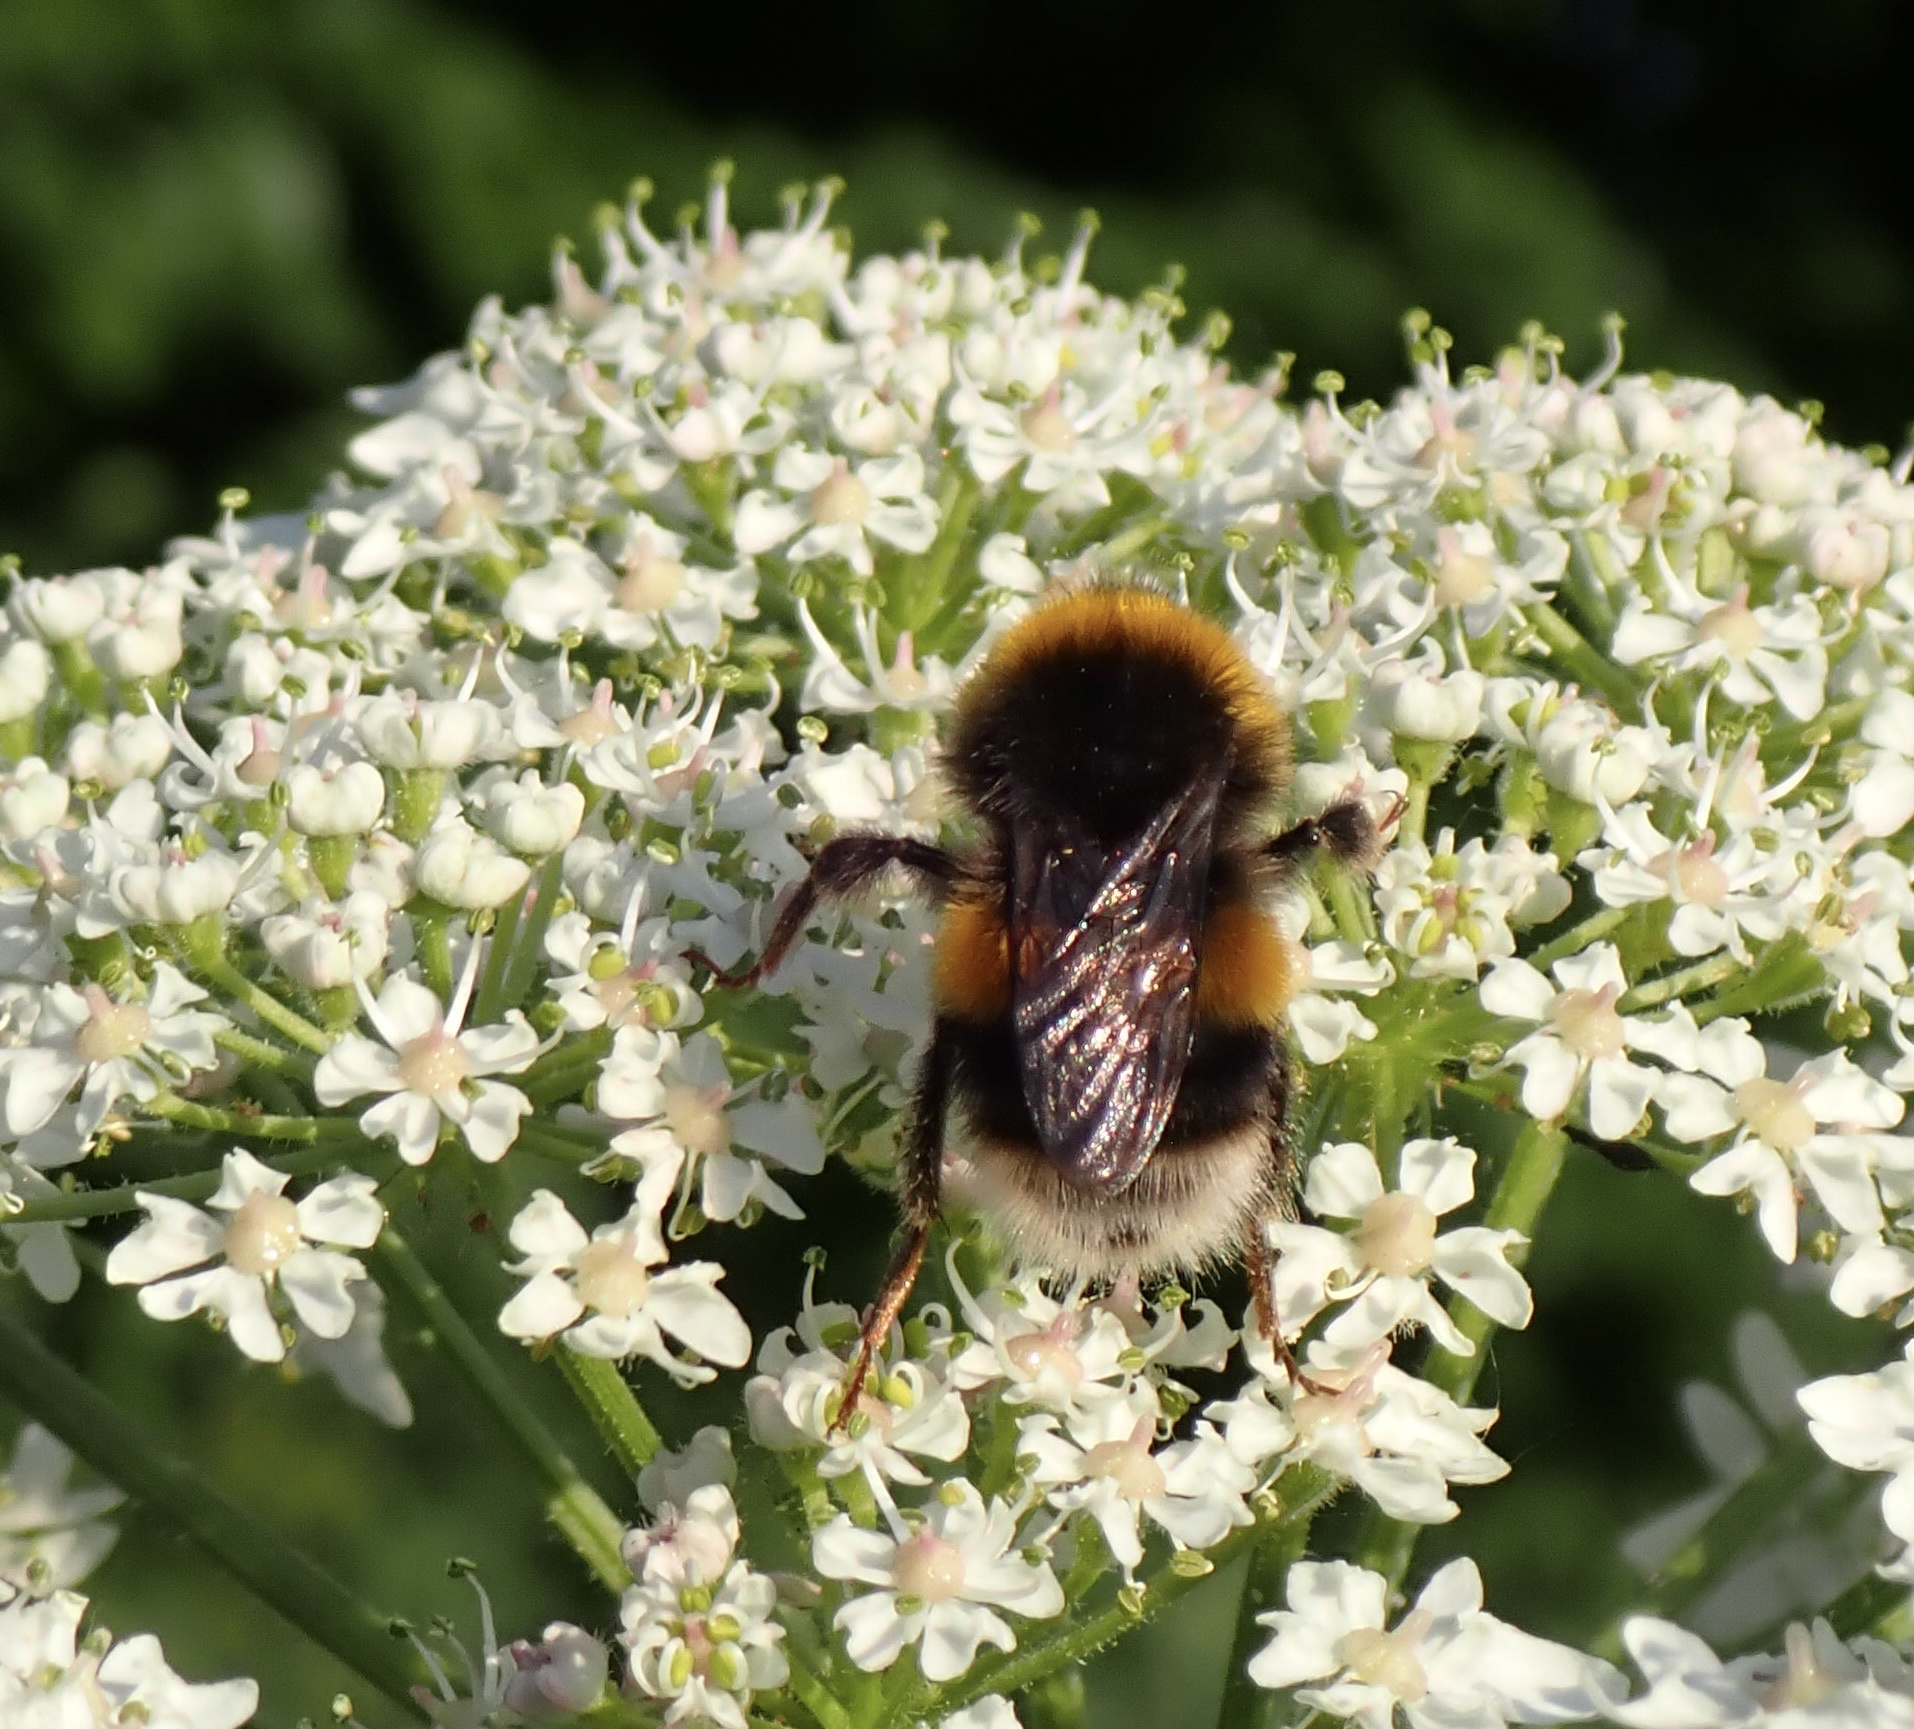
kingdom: Animalia
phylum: Arthropoda
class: Insecta
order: Hymenoptera
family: Apidae
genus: Bombus
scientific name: Bombus terrestris
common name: Buff-tailed bumblebee
